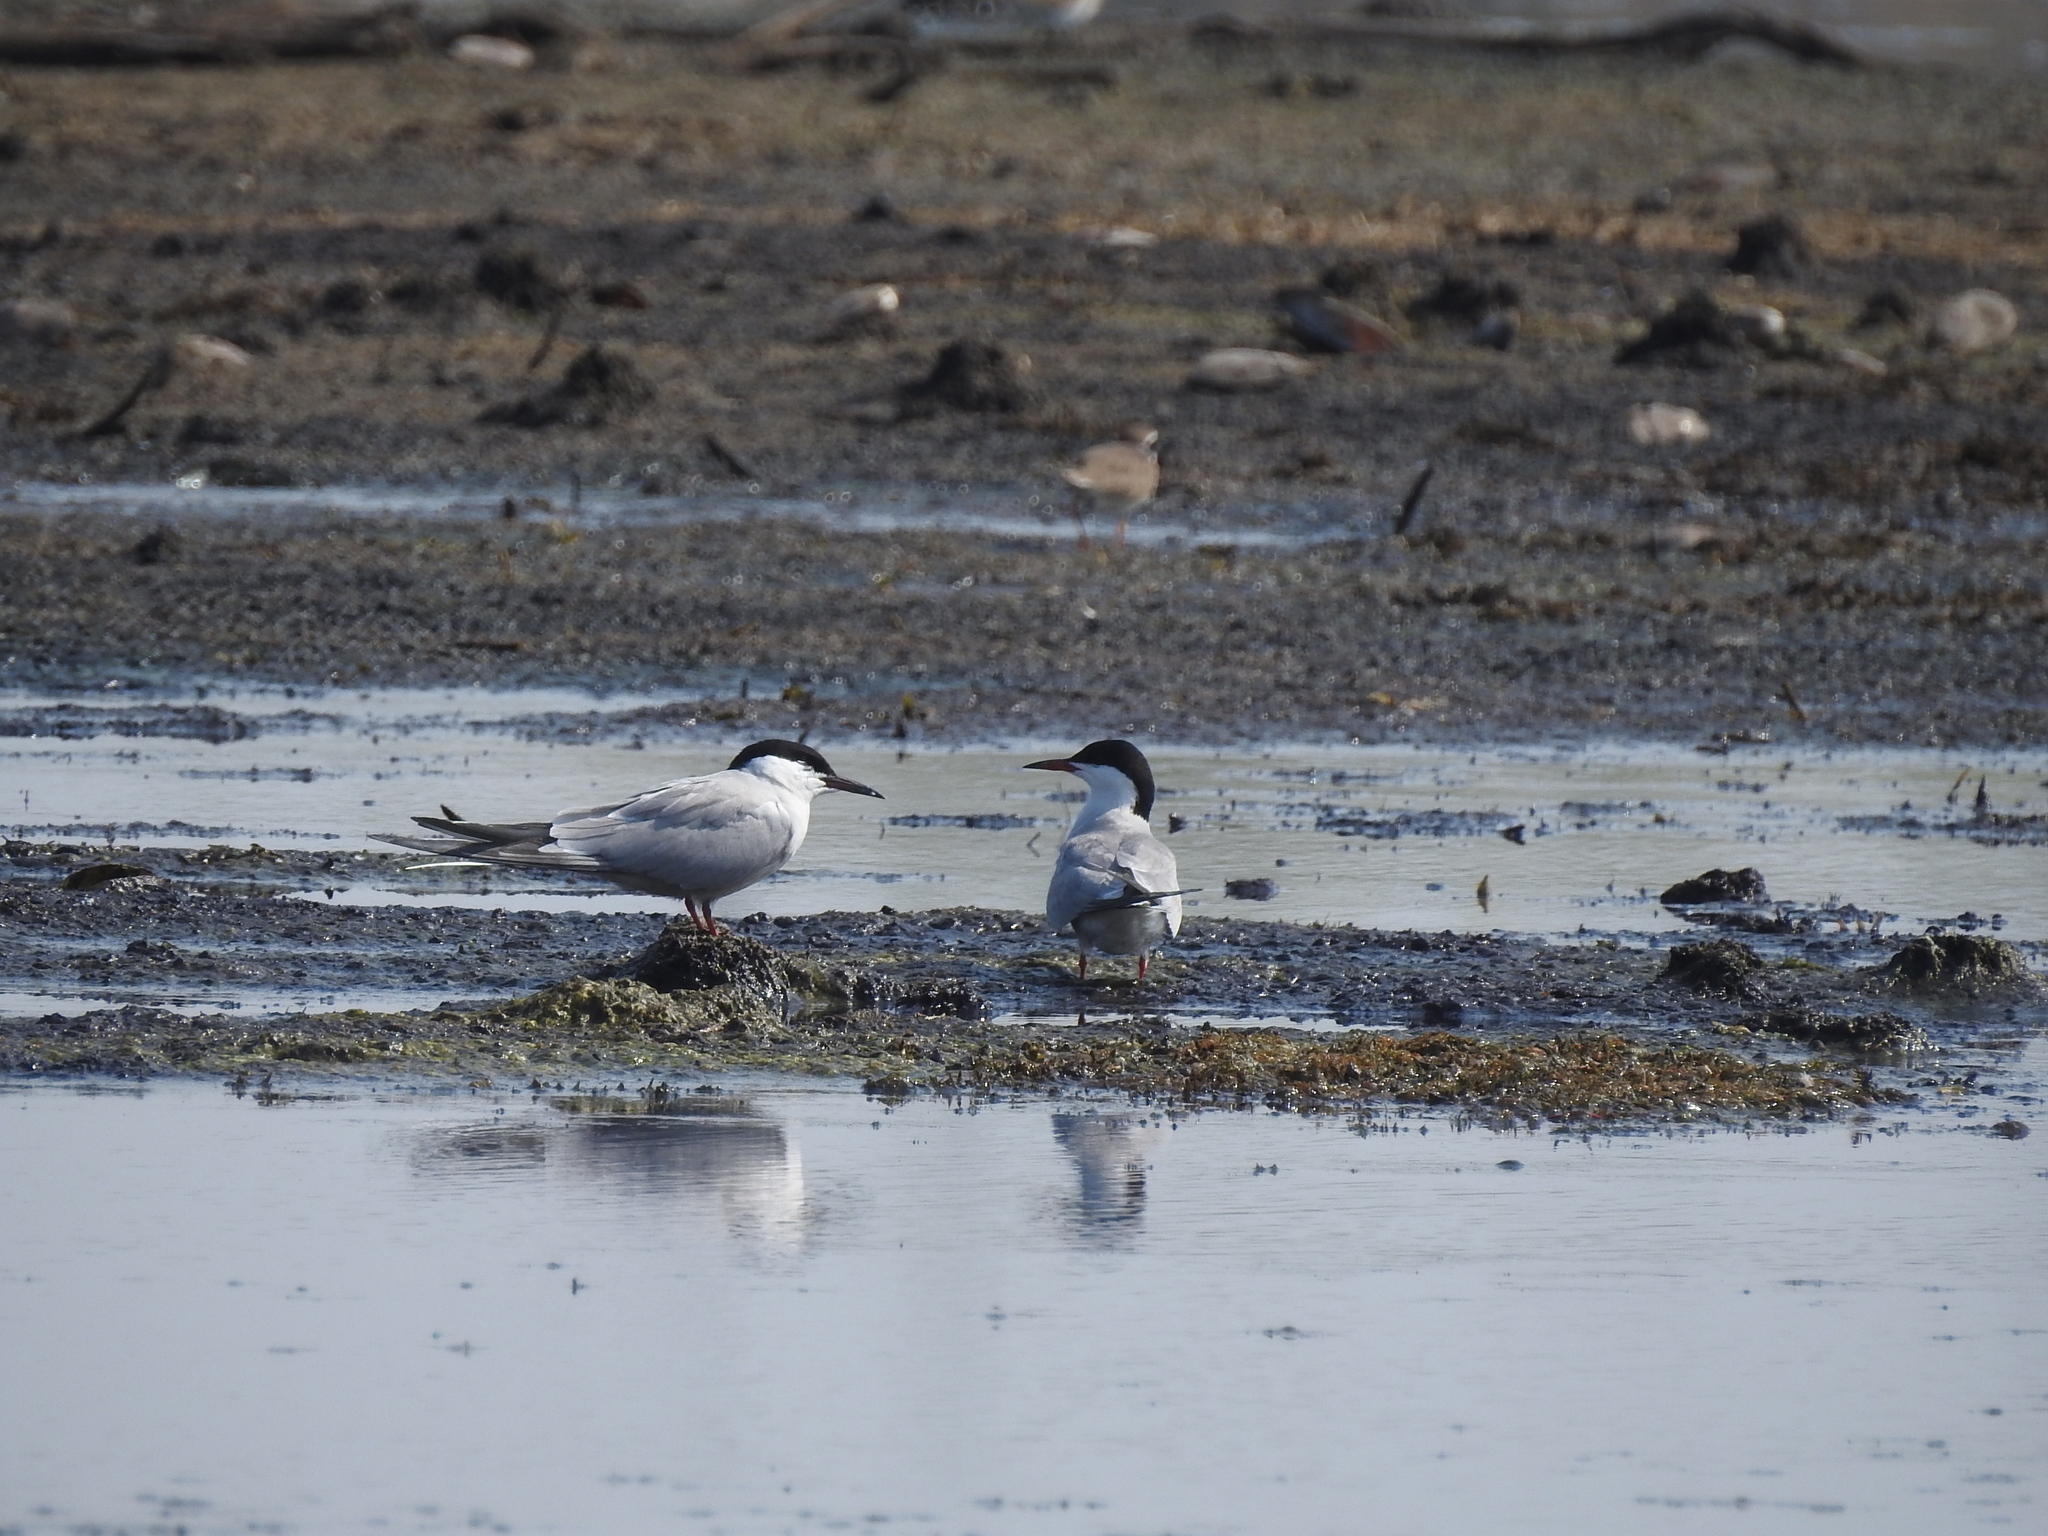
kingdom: Animalia
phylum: Chordata
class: Aves
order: Charadriiformes
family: Laridae
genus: Sterna
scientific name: Sterna hirundo
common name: Common tern
